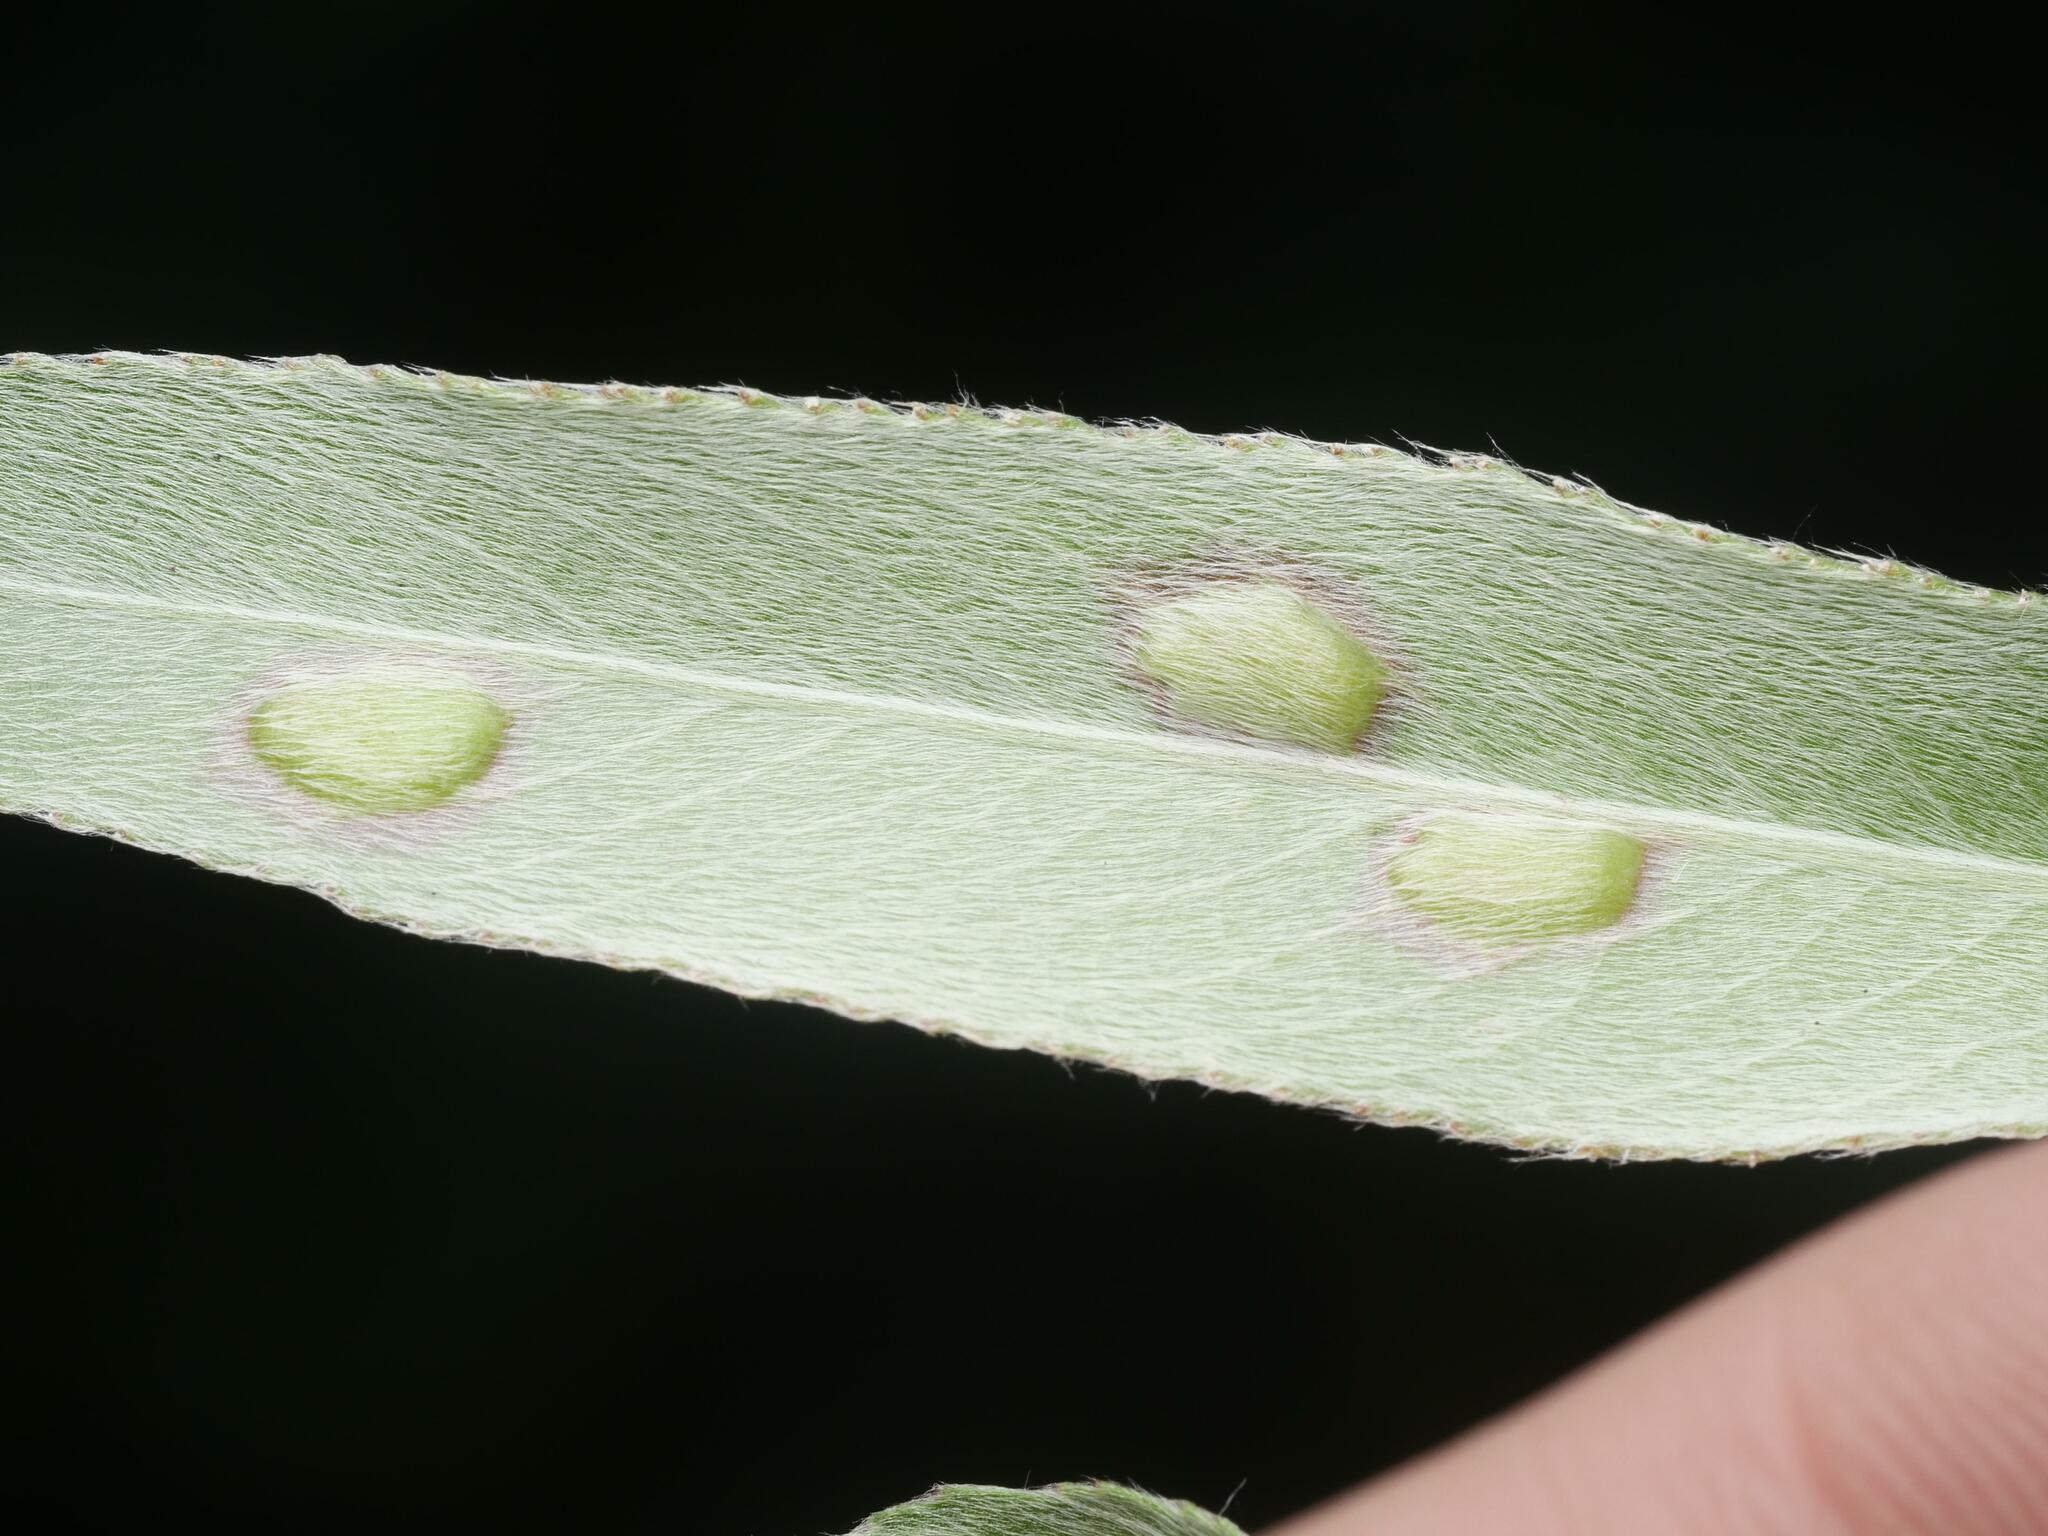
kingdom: Animalia
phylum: Arthropoda
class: Insecta
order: Hymenoptera
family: Tenthredinidae
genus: Pontania
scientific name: Pontania proxima
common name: Common sawfly
